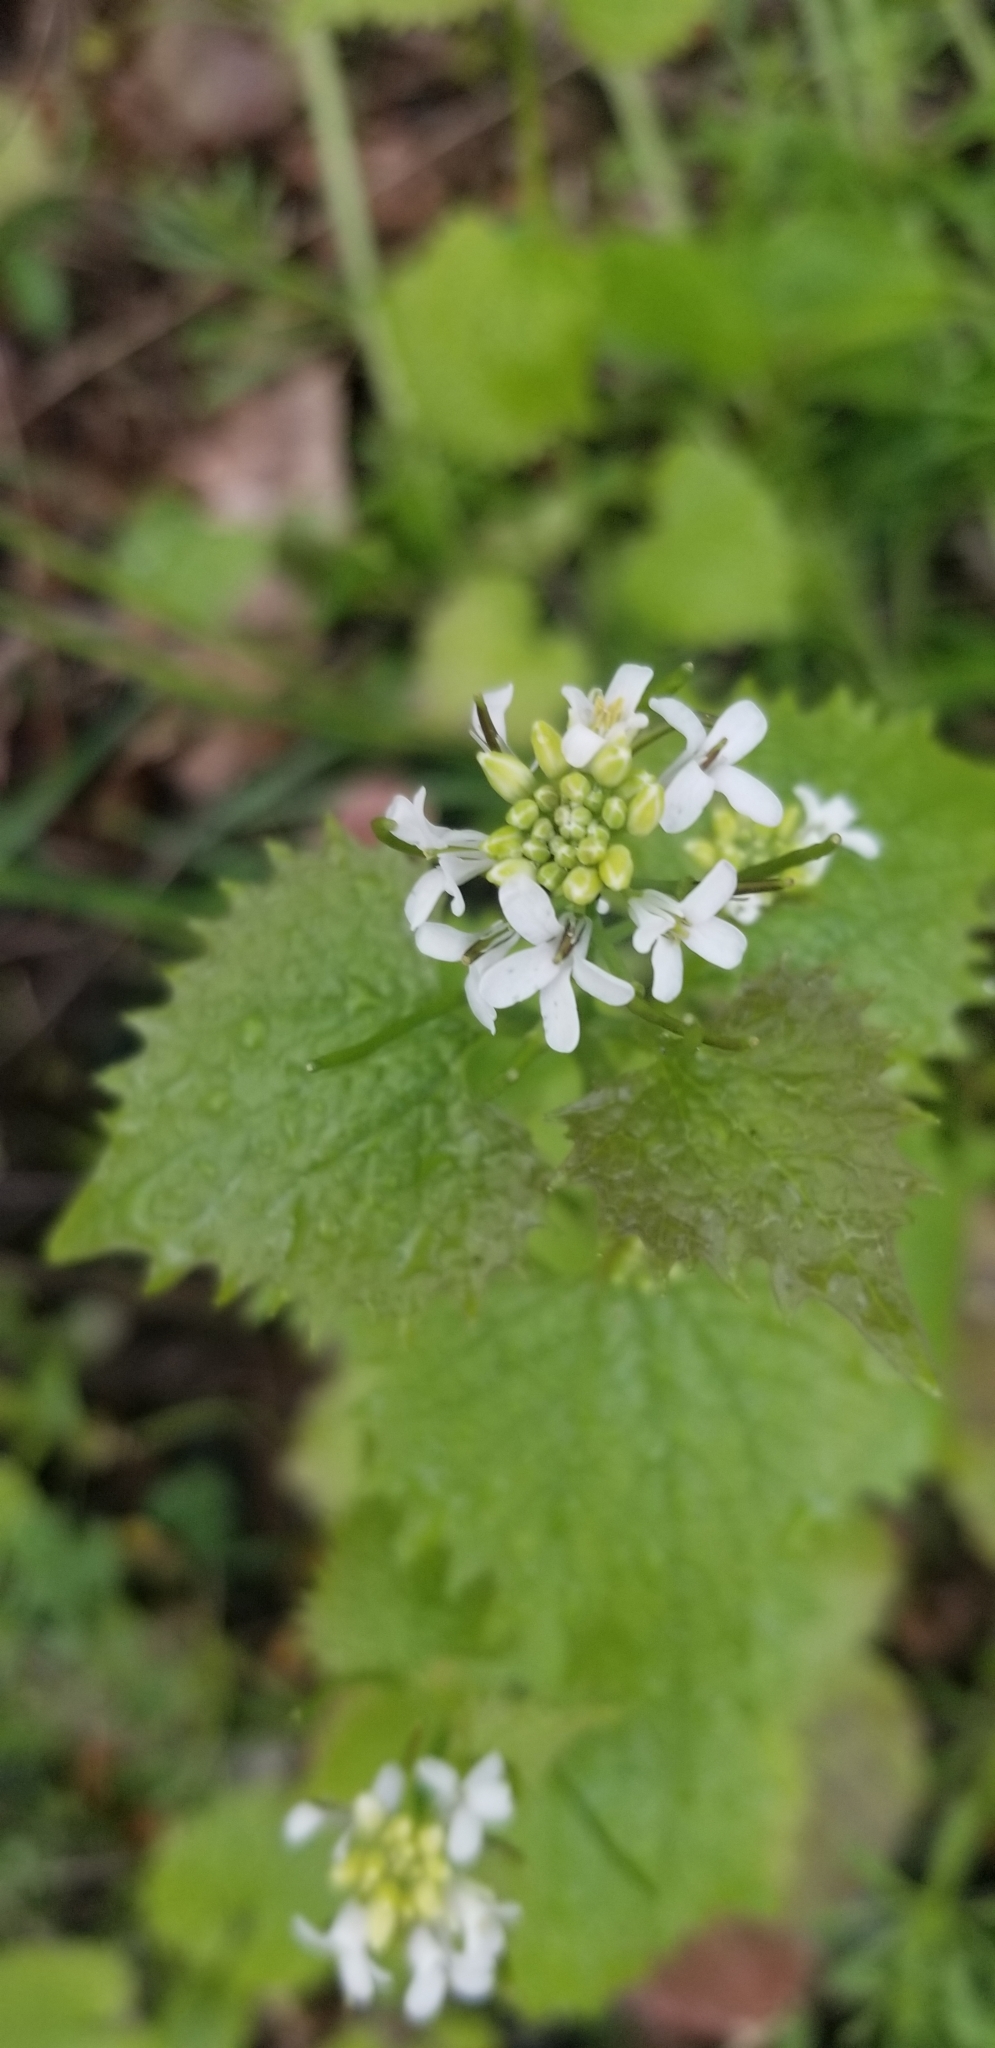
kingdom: Plantae
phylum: Tracheophyta
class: Magnoliopsida
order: Brassicales
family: Brassicaceae
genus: Alliaria
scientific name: Alliaria petiolata
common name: Garlic mustard
